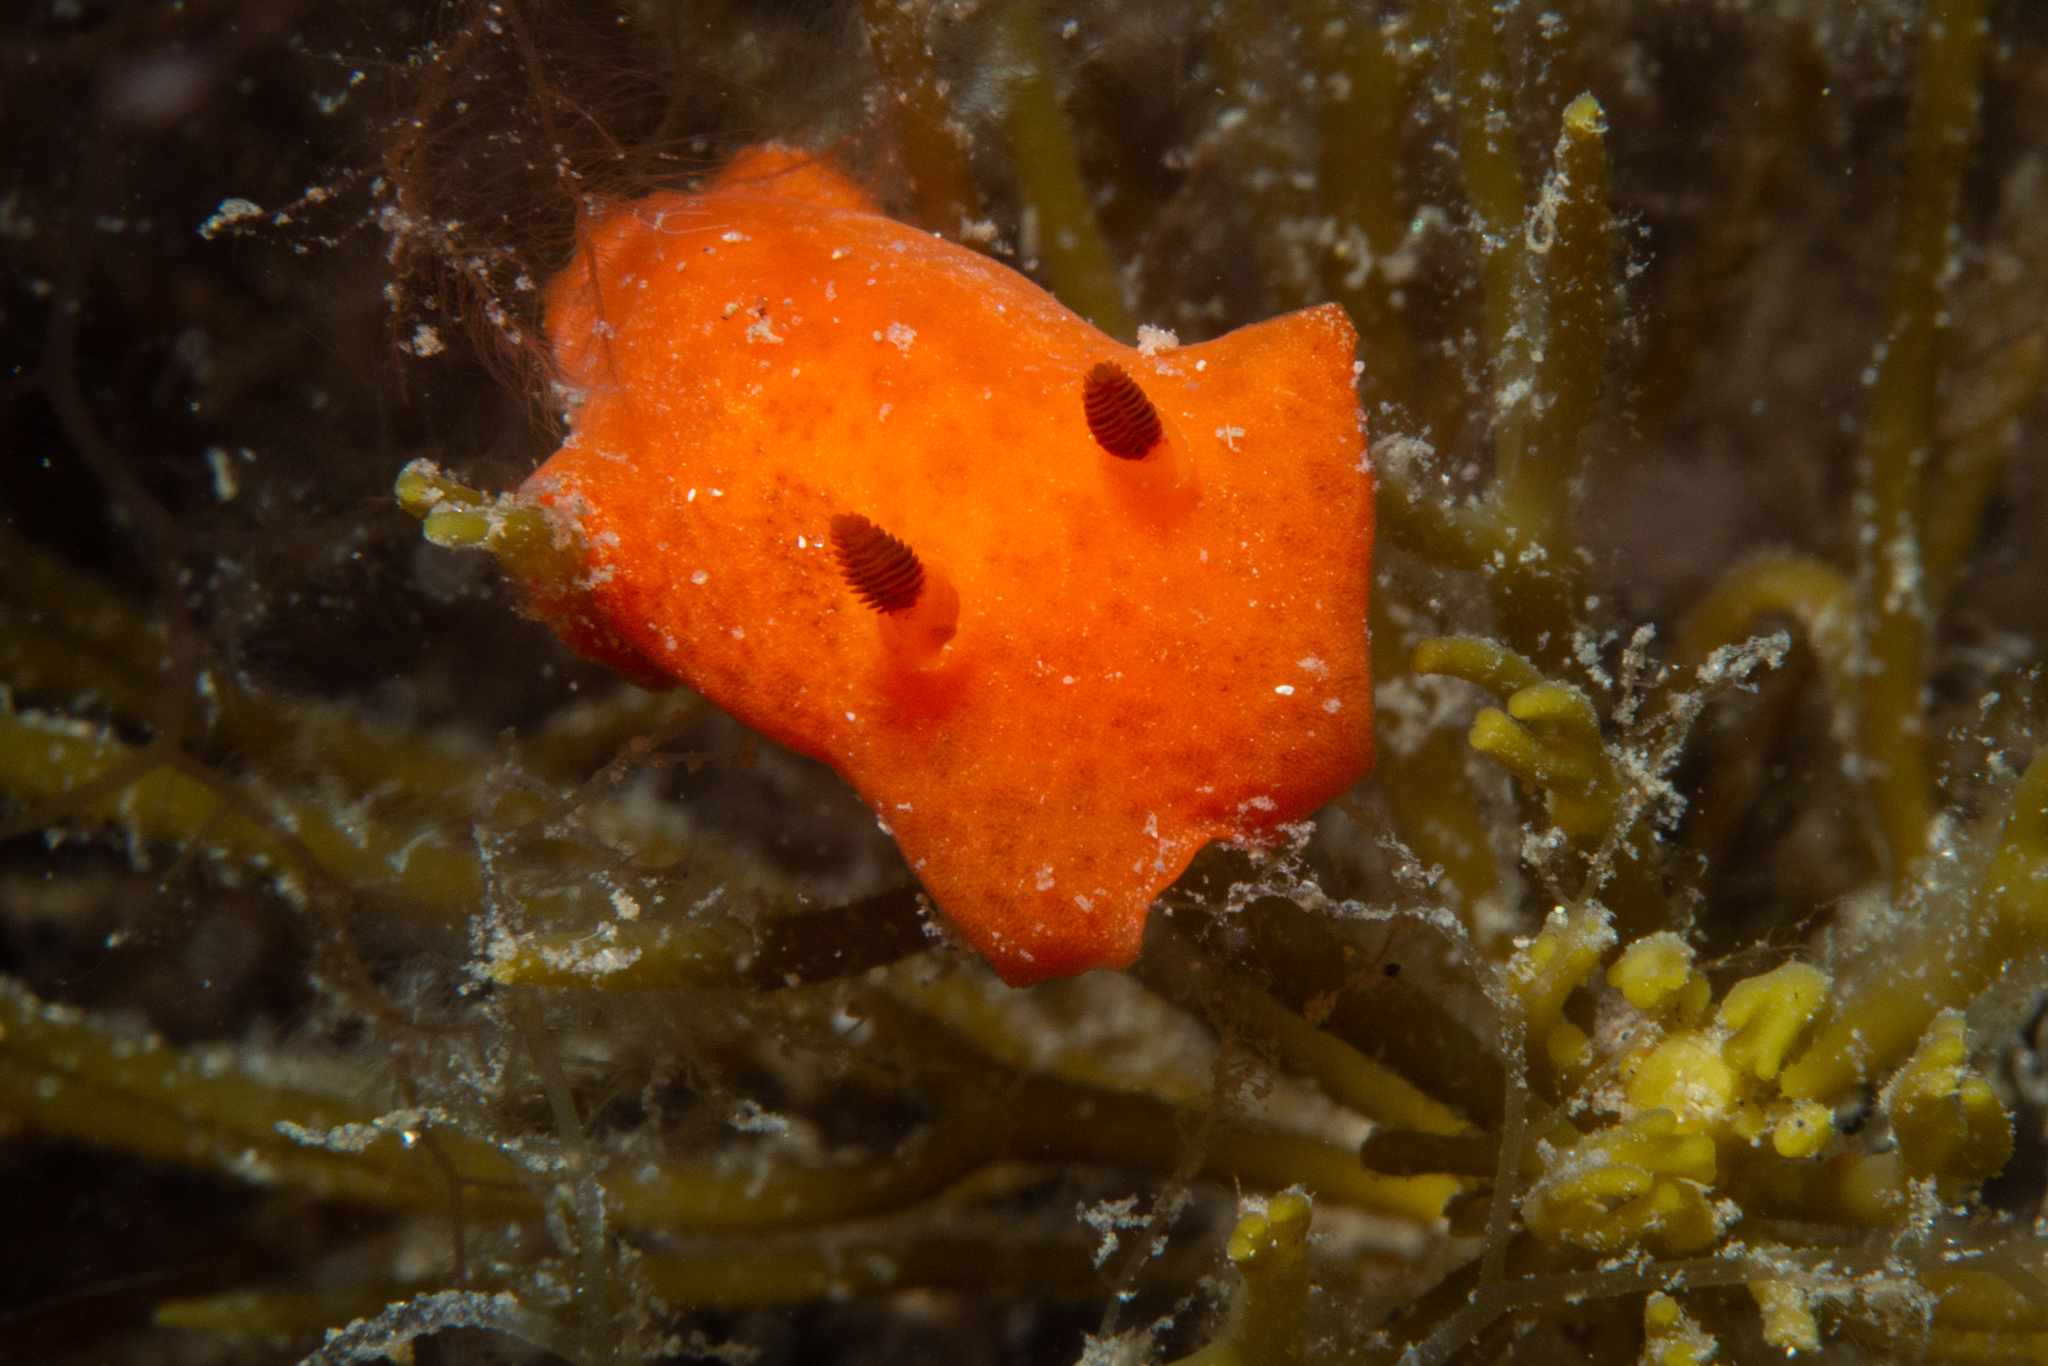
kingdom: Animalia
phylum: Mollusca
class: Gastropoda
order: Nudibranchia
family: Discodorididae
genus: Discodoris
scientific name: Discodoris paroa
